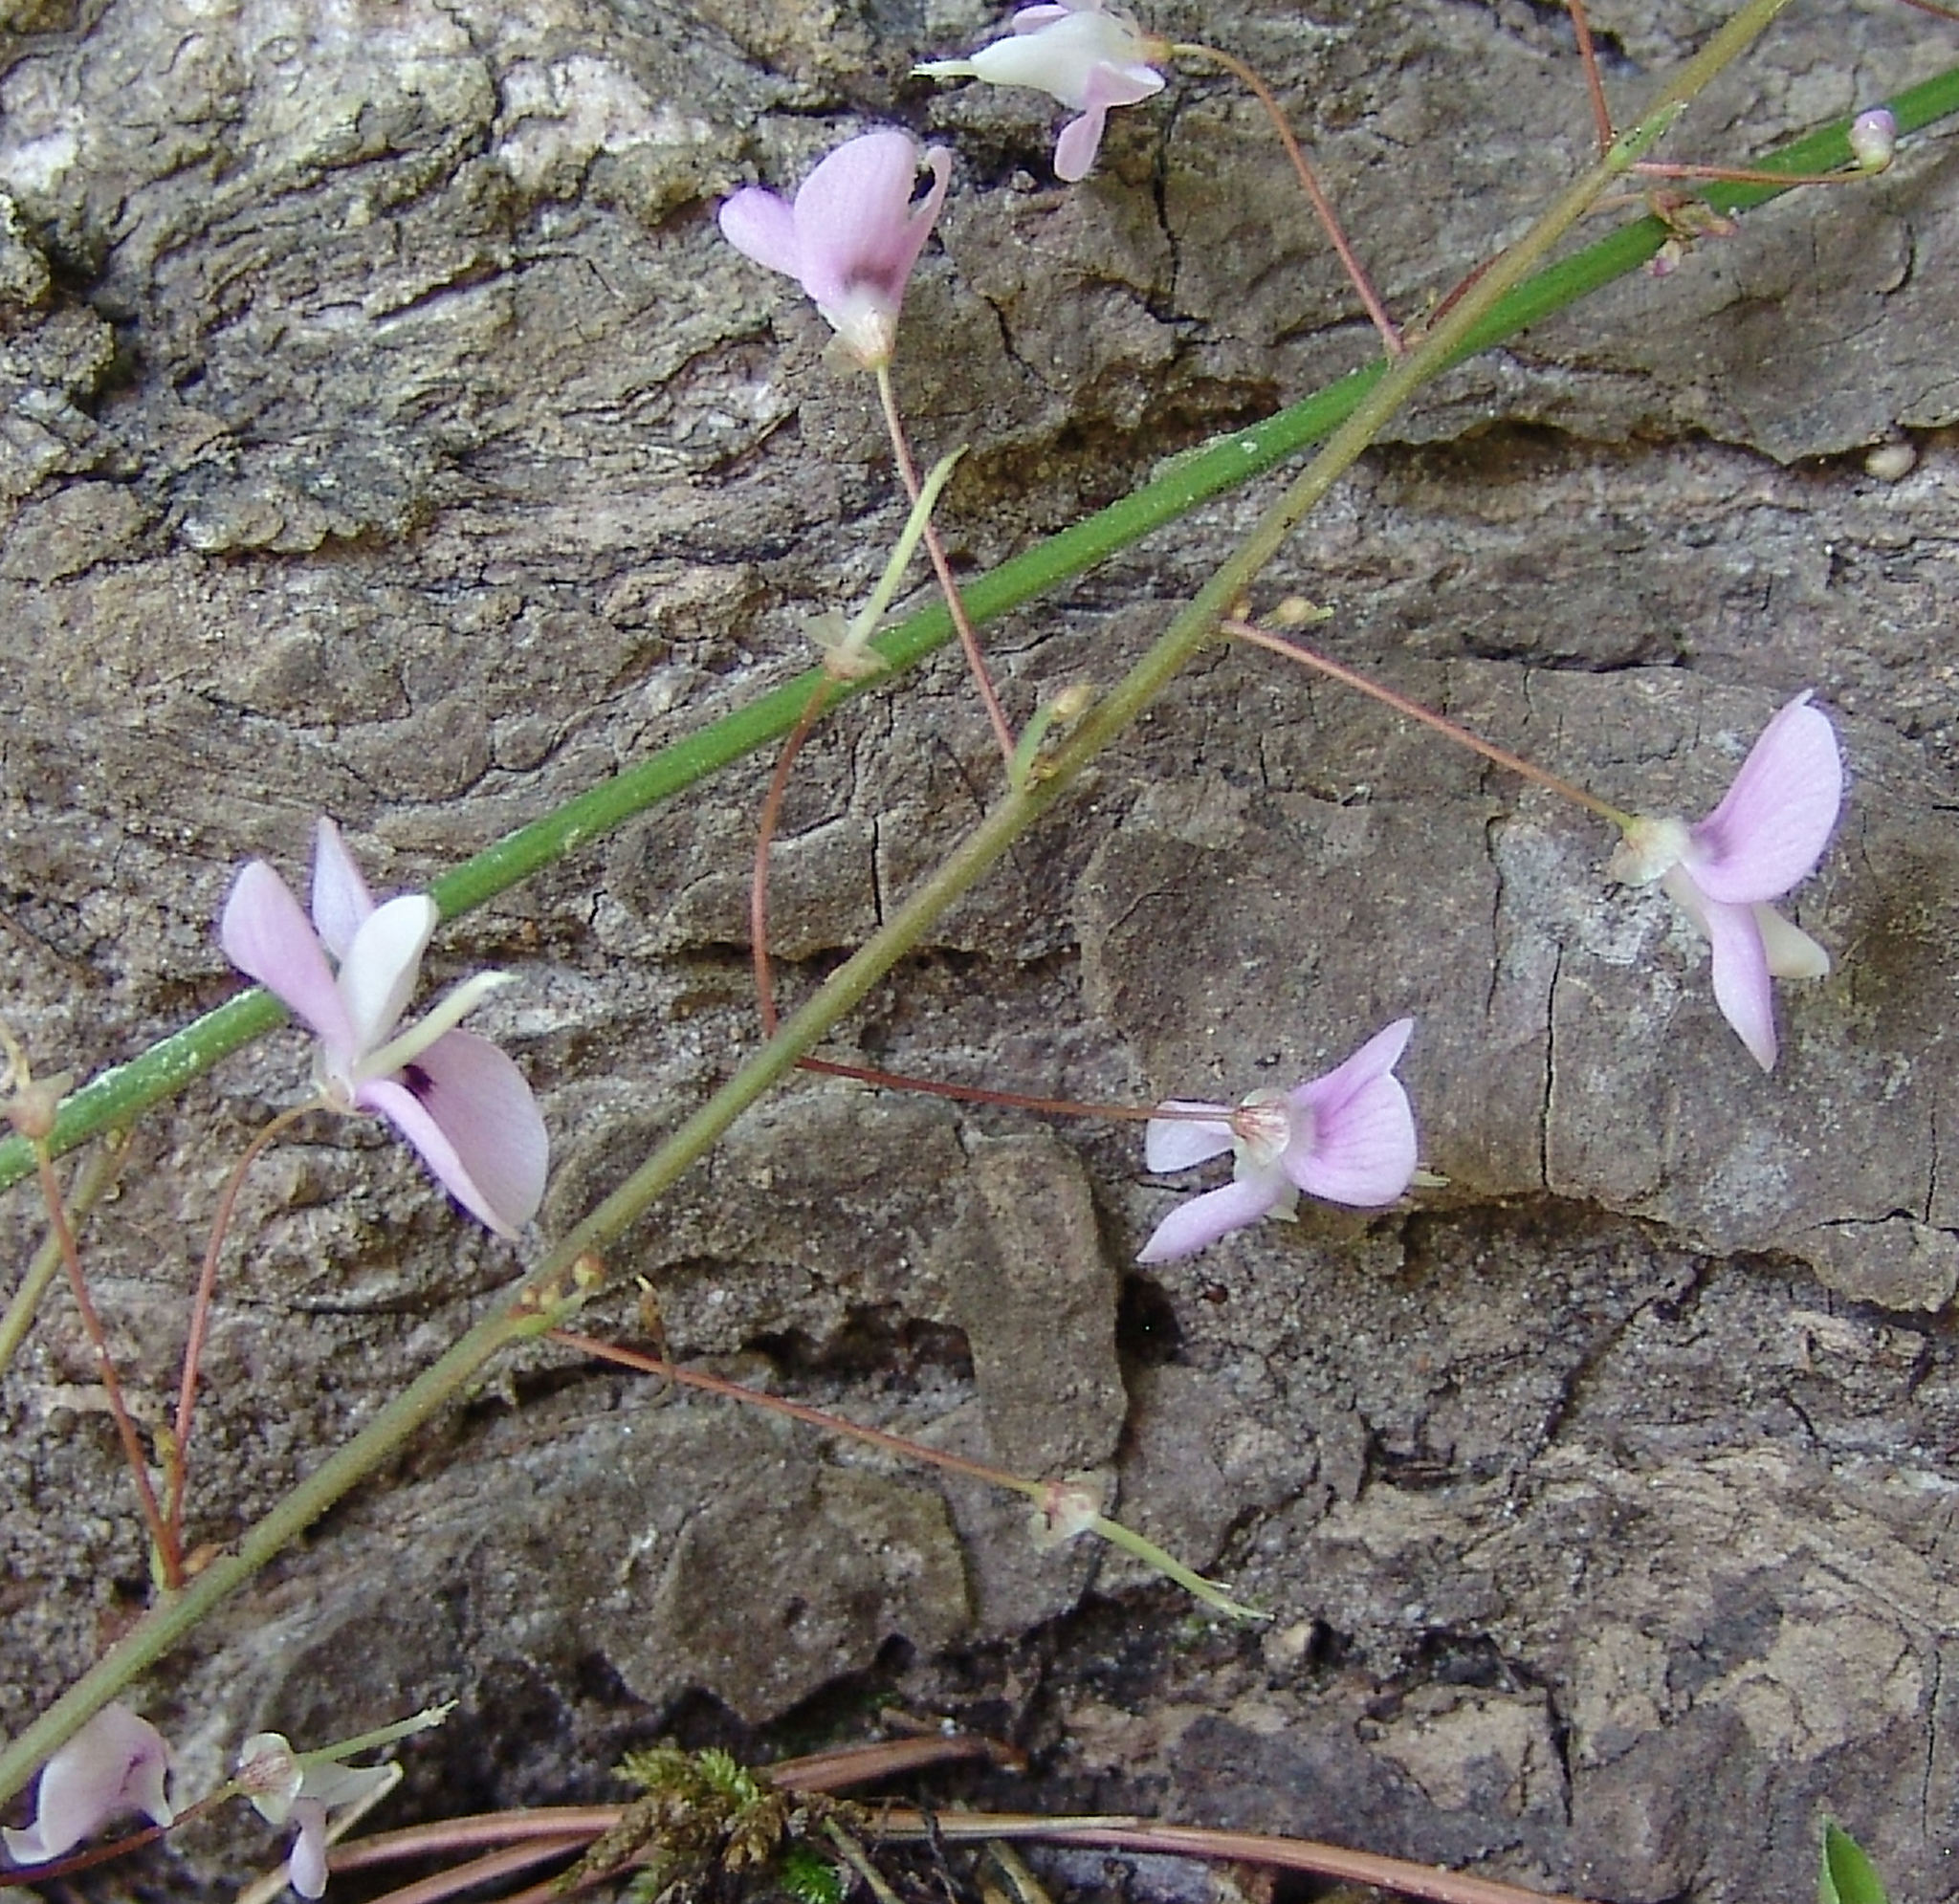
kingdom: Plantae
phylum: Tracheophyta
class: Magnoliopsida
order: Fabales
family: Fabaceae
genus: Hylodesmum
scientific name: Hylodesmum nudiflorum
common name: Bare-stemmed tick-trefoil
